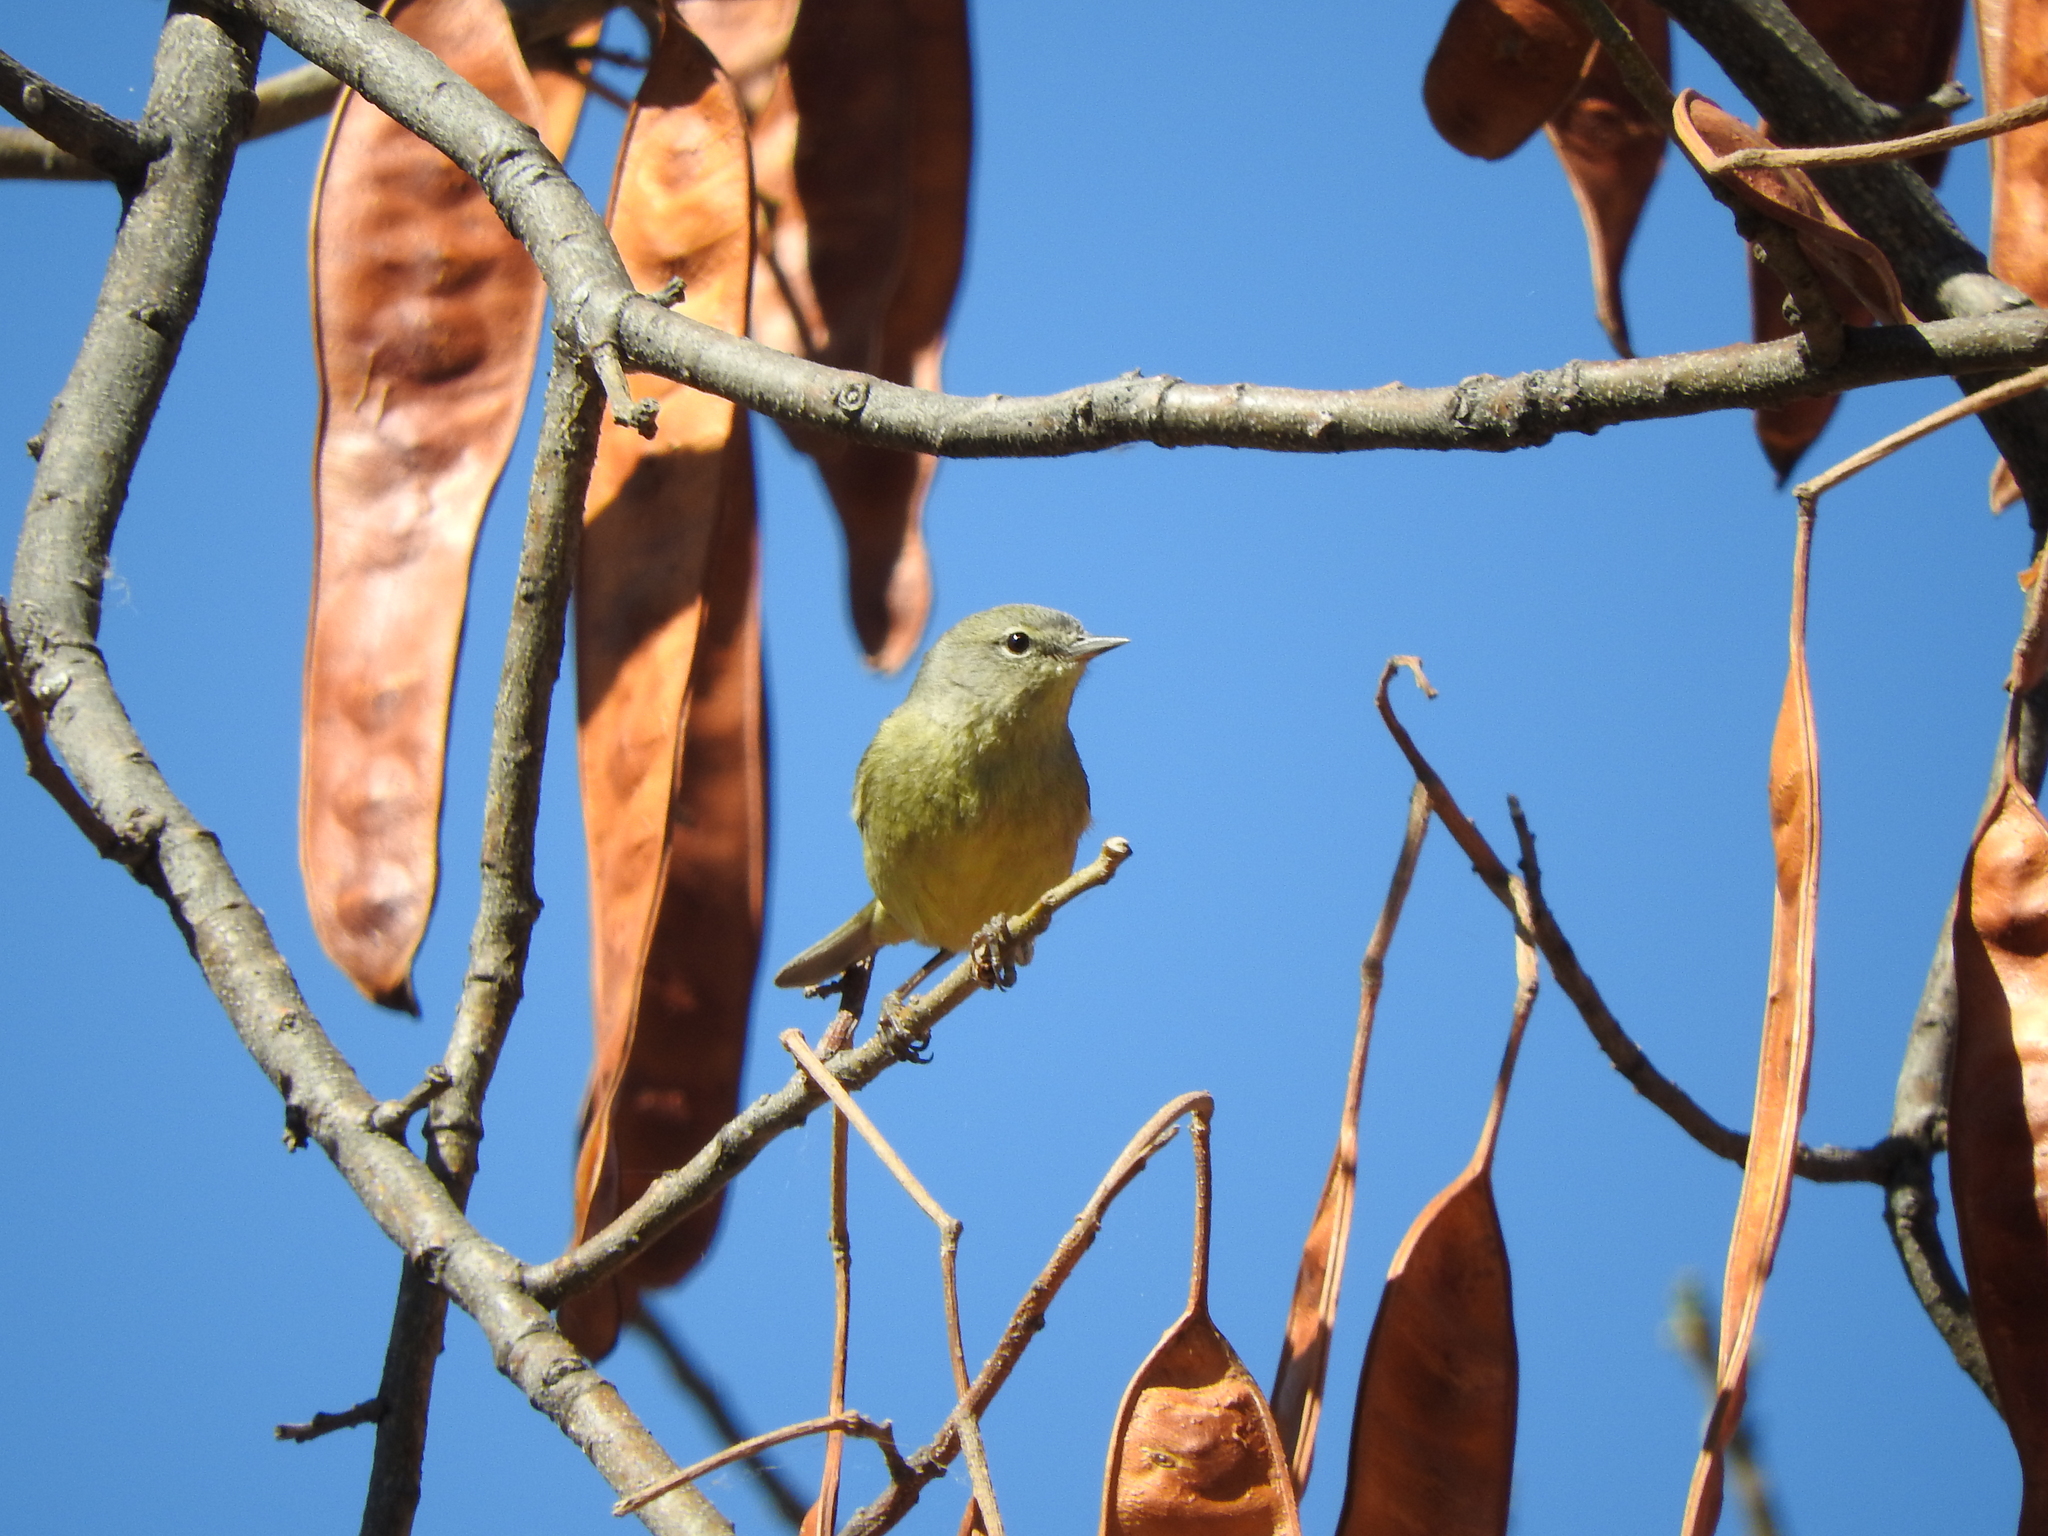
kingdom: Animalia
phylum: Chordata
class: Aves
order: Passeriformes
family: Parulidae
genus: Leiothlypis
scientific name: Leiothlypis celata
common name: Orange-crowned warbler
